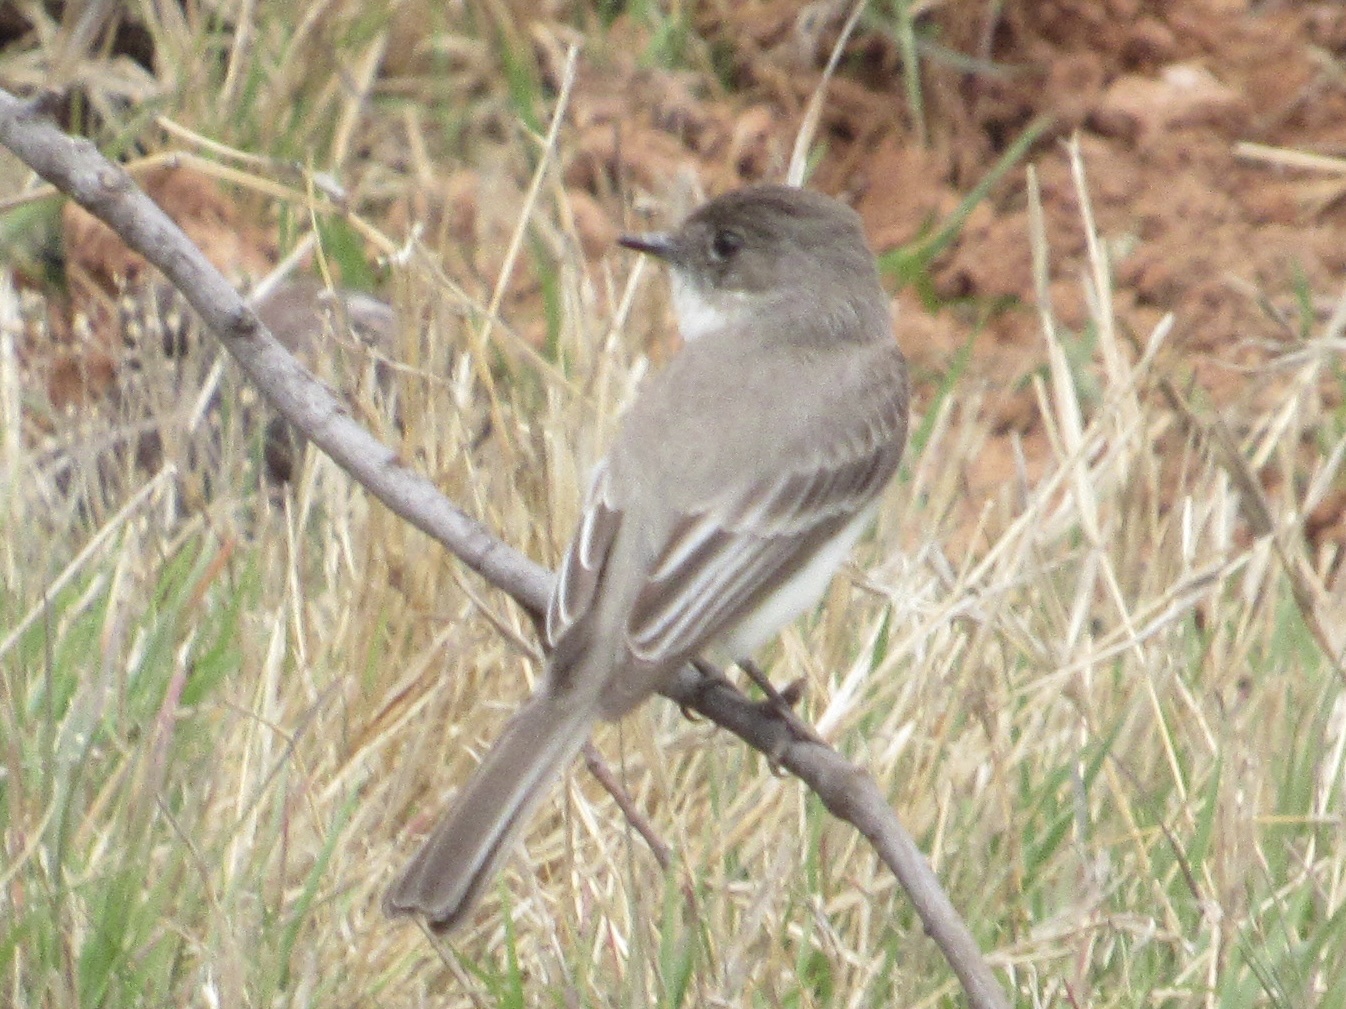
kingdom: Animalia
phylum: Chordata
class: Aves
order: Passeriformes
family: Tyrannidae
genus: Sayornis
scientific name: Sayornis phoebe
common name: Eastern phoebe
